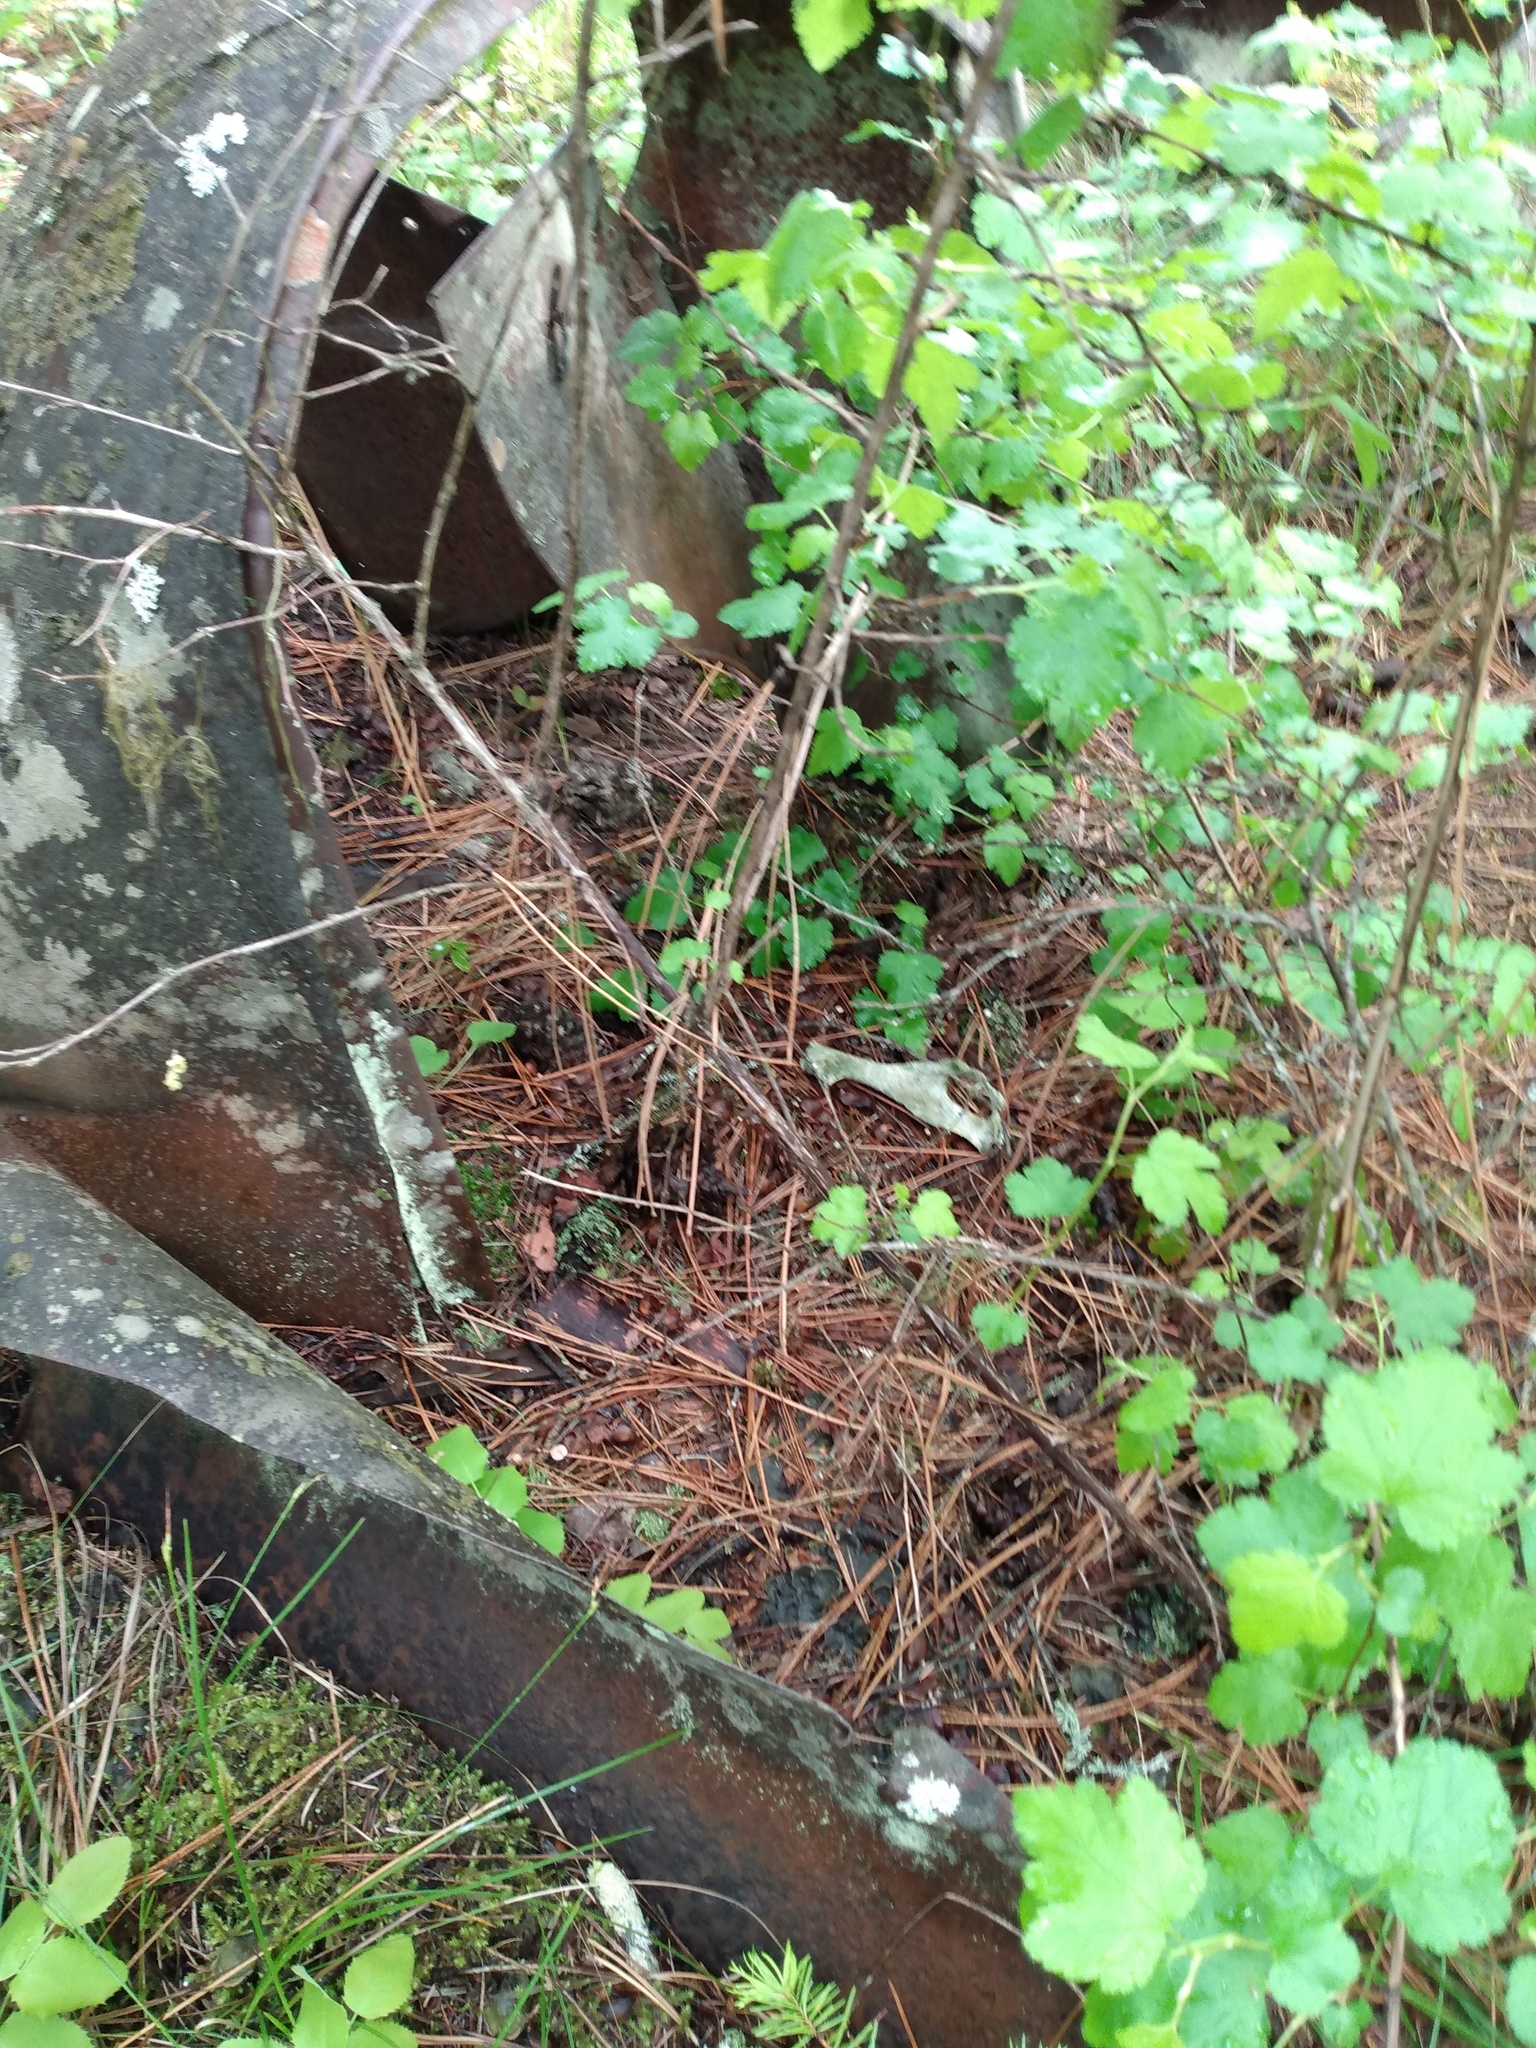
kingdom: Animalia
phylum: Chordata
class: Mammalia
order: Artiodactyla
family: Cervidae
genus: Odocoileus
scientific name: Odocoileus virginianus
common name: White-tailed deer
